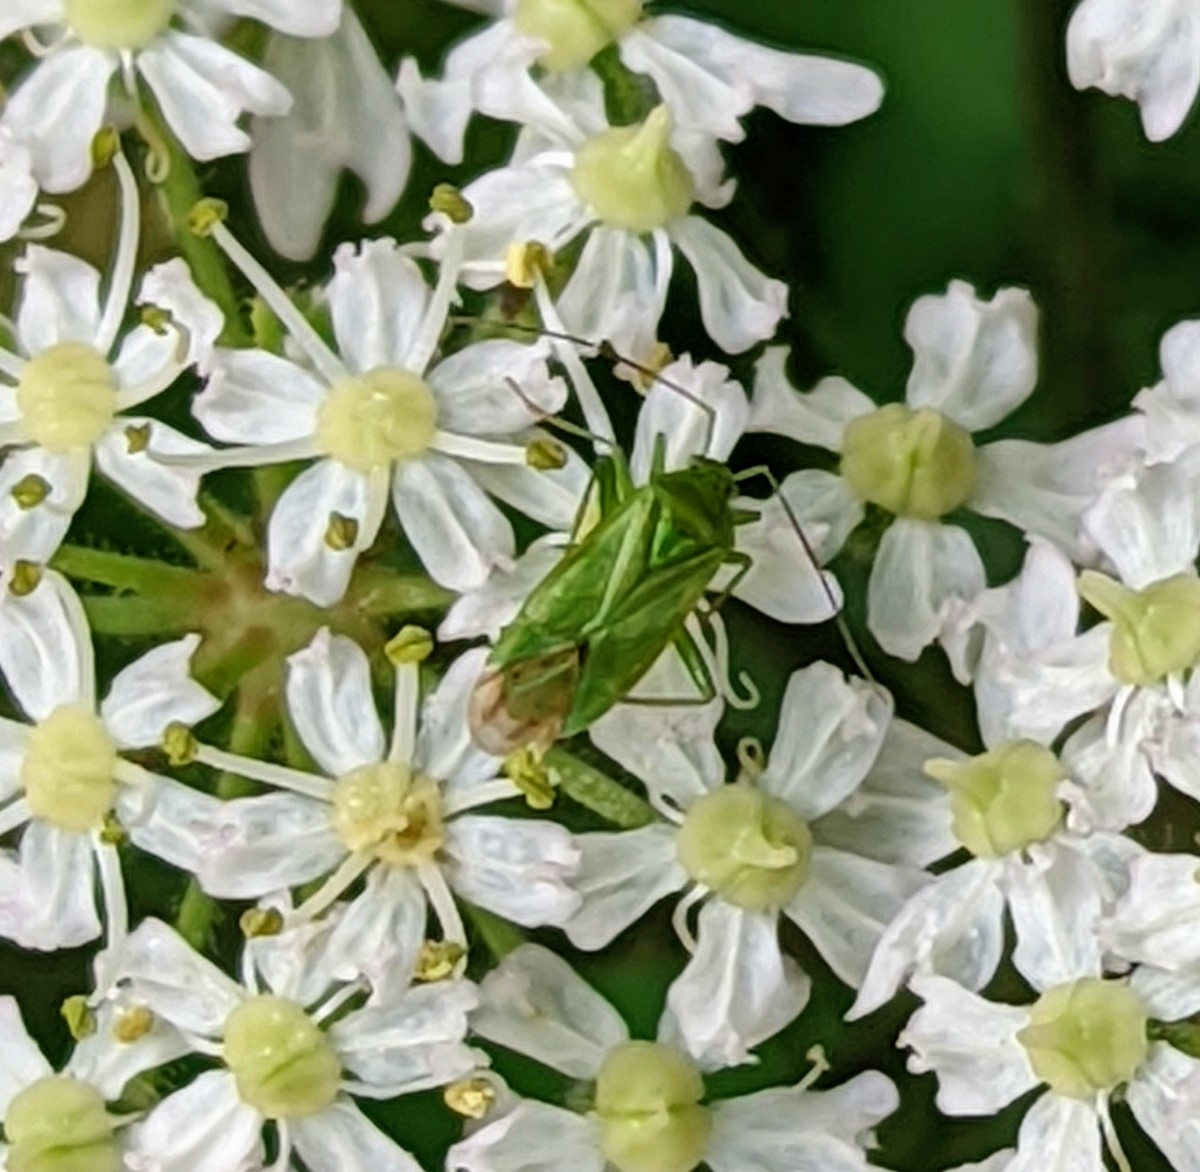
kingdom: Animalia
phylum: Arthropoda
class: Insecta
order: Hemiptera
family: Miridae
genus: Lygocoris
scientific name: Lygocoris pabulinus
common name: Common green capsid
